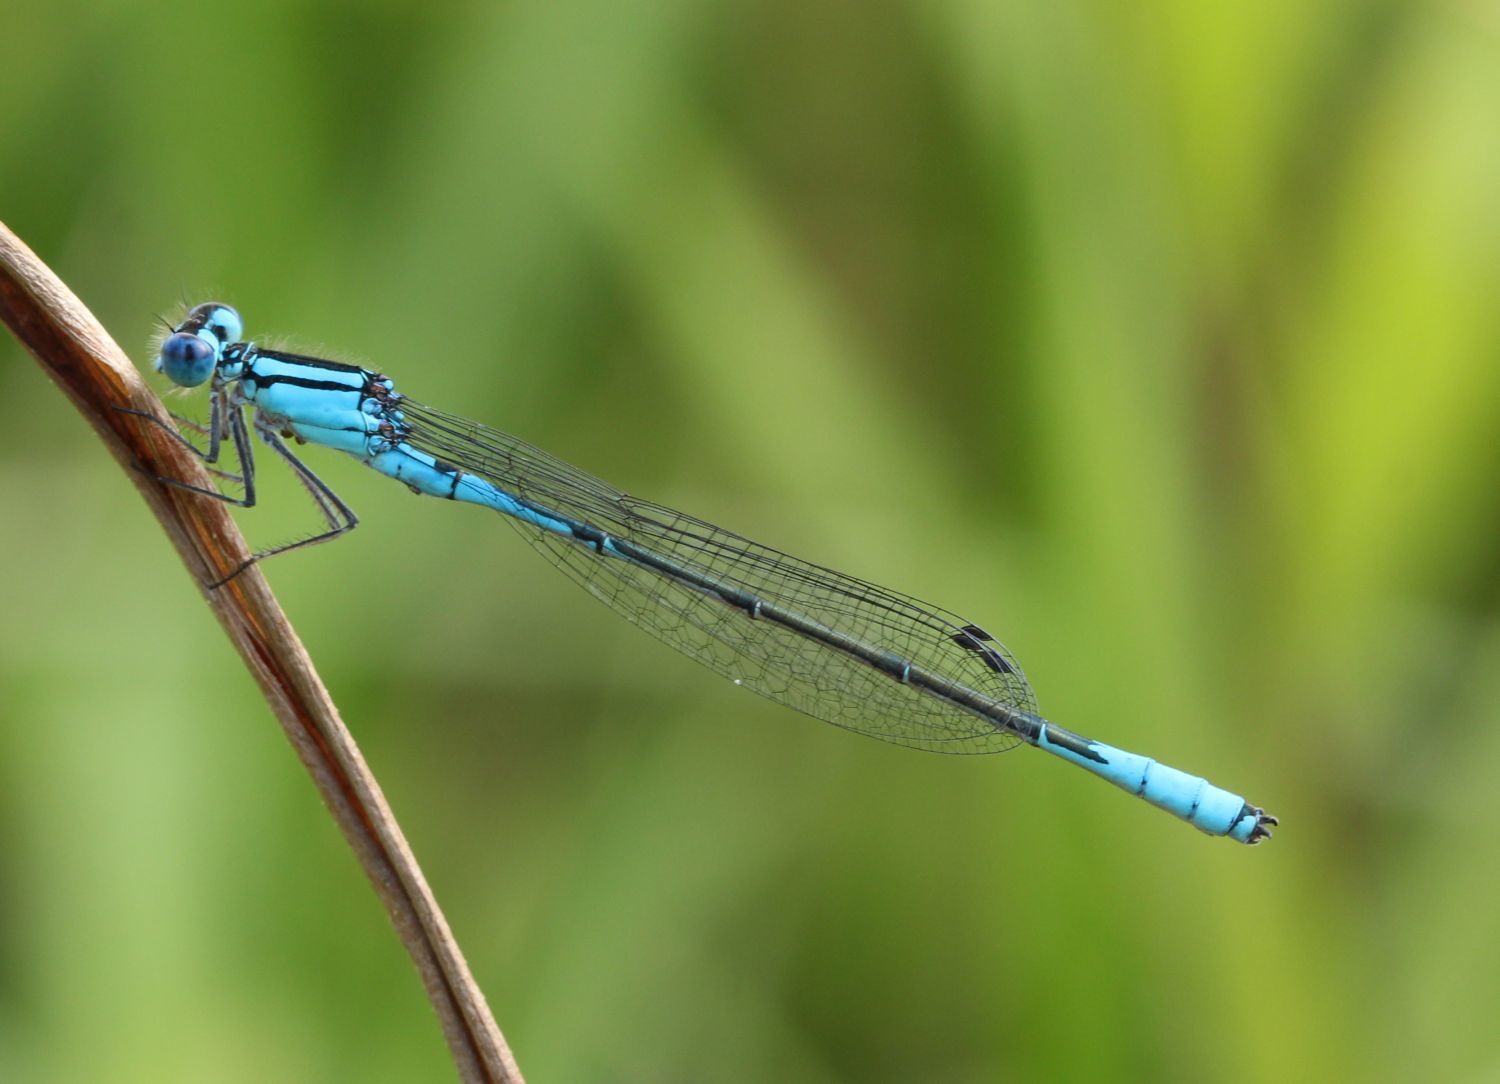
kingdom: Animalia
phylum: Arthropoda
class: Insecta
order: Odonata
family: Coenagrionidae
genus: Enallagma
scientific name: Enallagma aspersum
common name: Azure bluet
